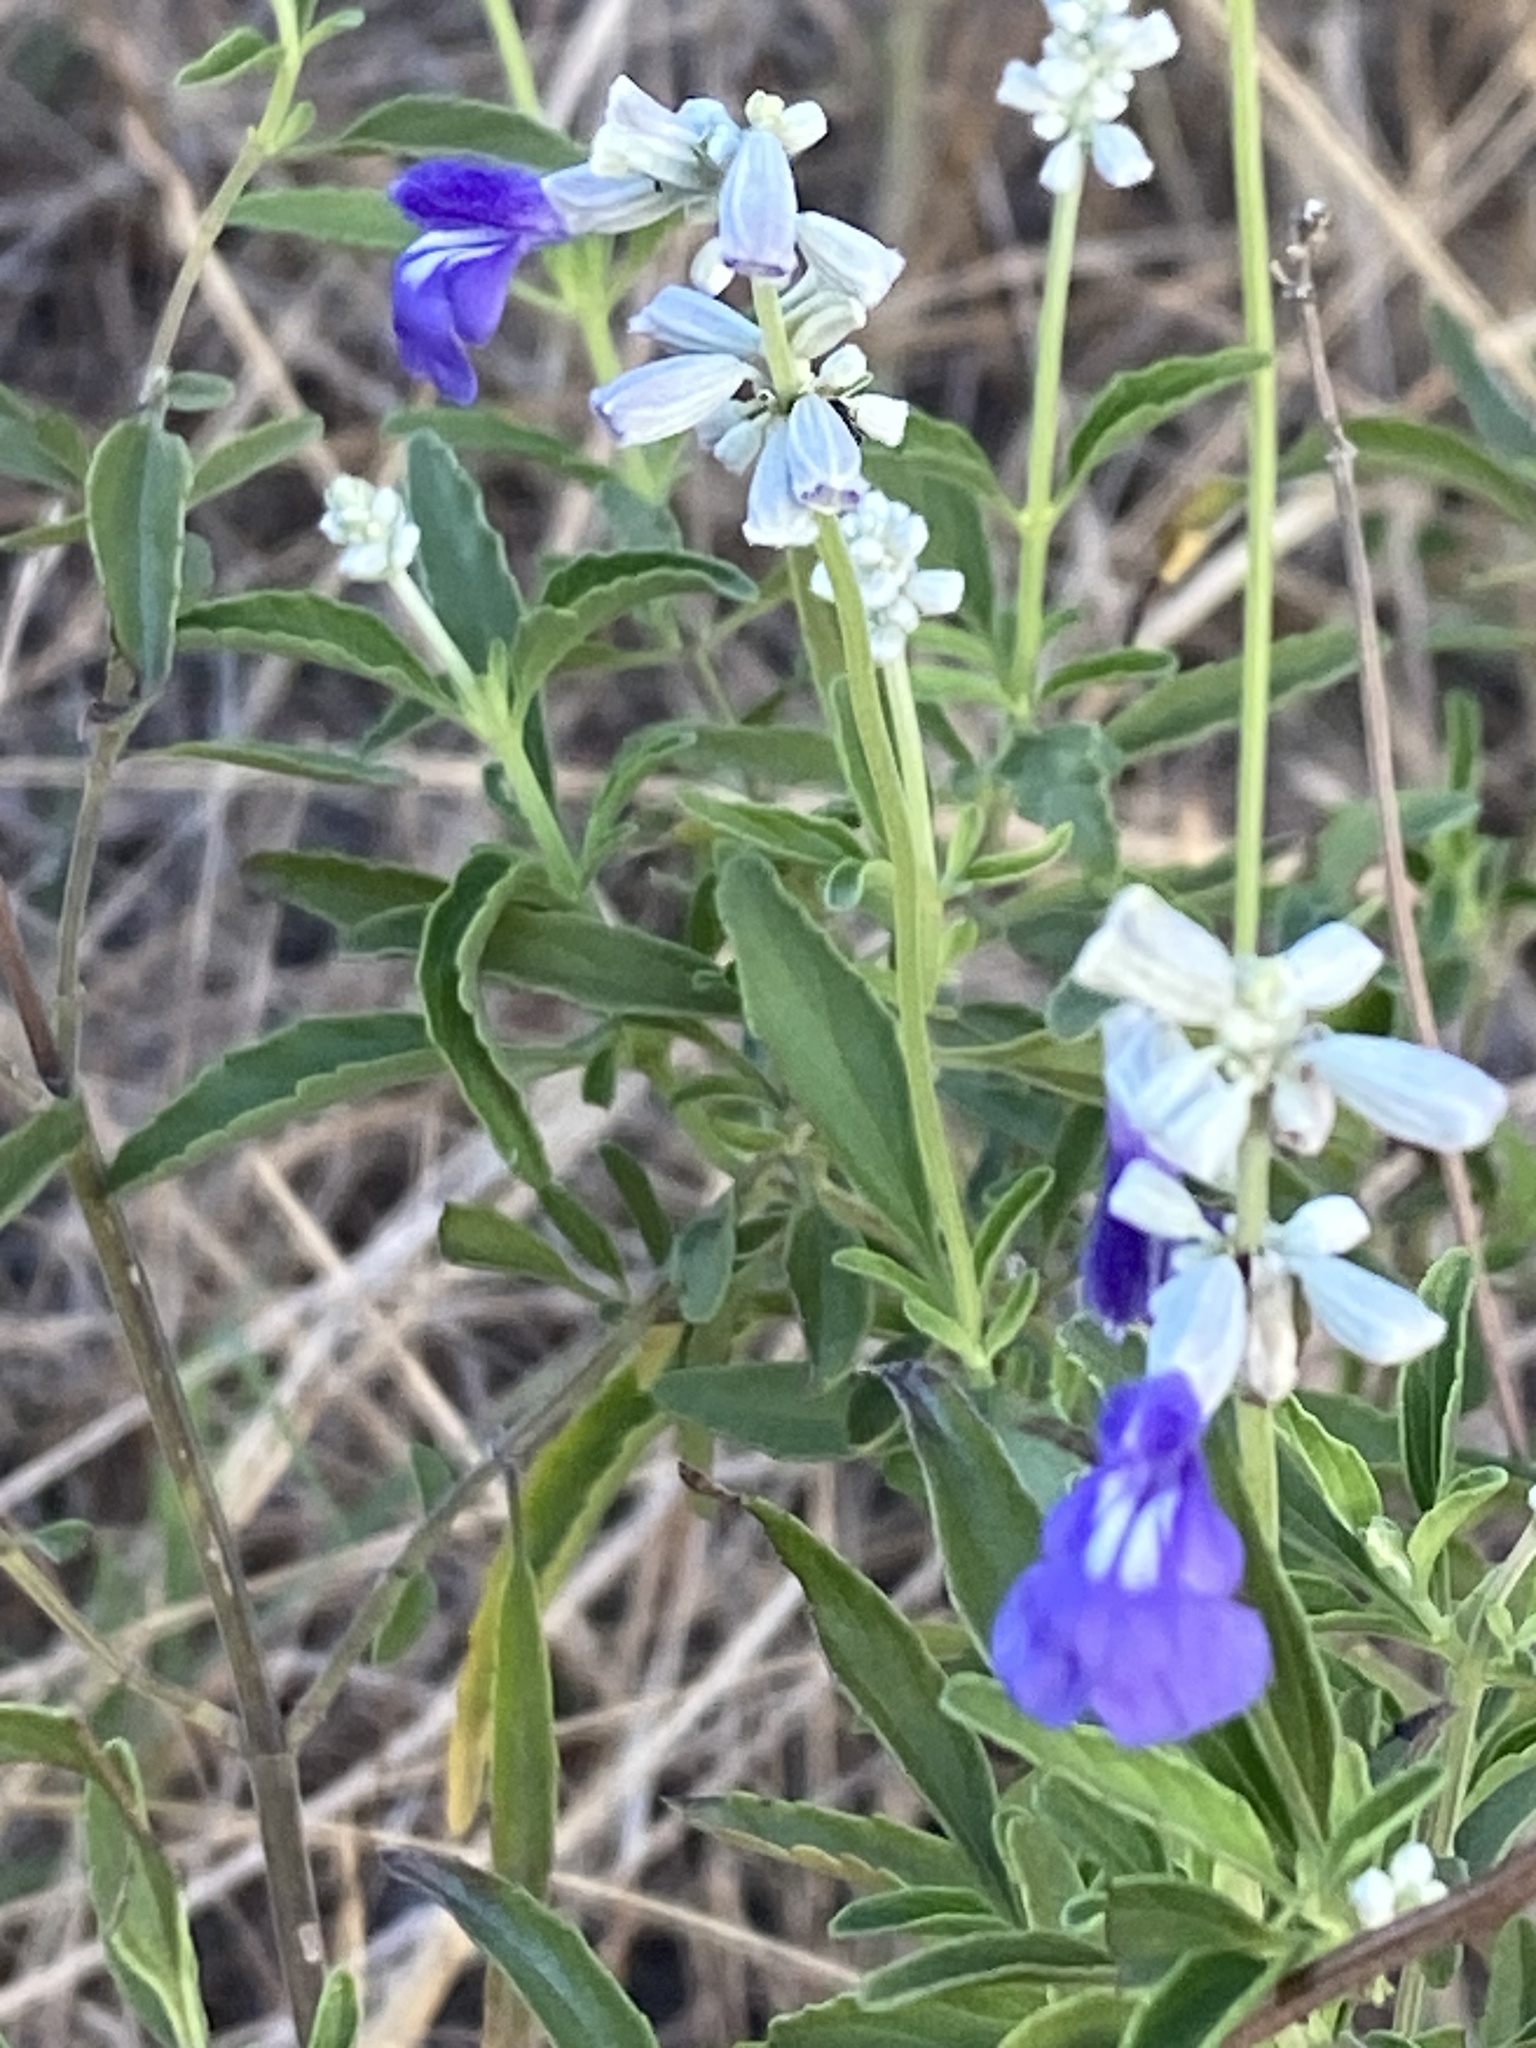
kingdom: Plantae
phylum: Tracheophyta
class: Magnoliopsida
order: Lamiales
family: Lamiaceae
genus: Salvia
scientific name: Salvia farinacea
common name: Mealy sage
